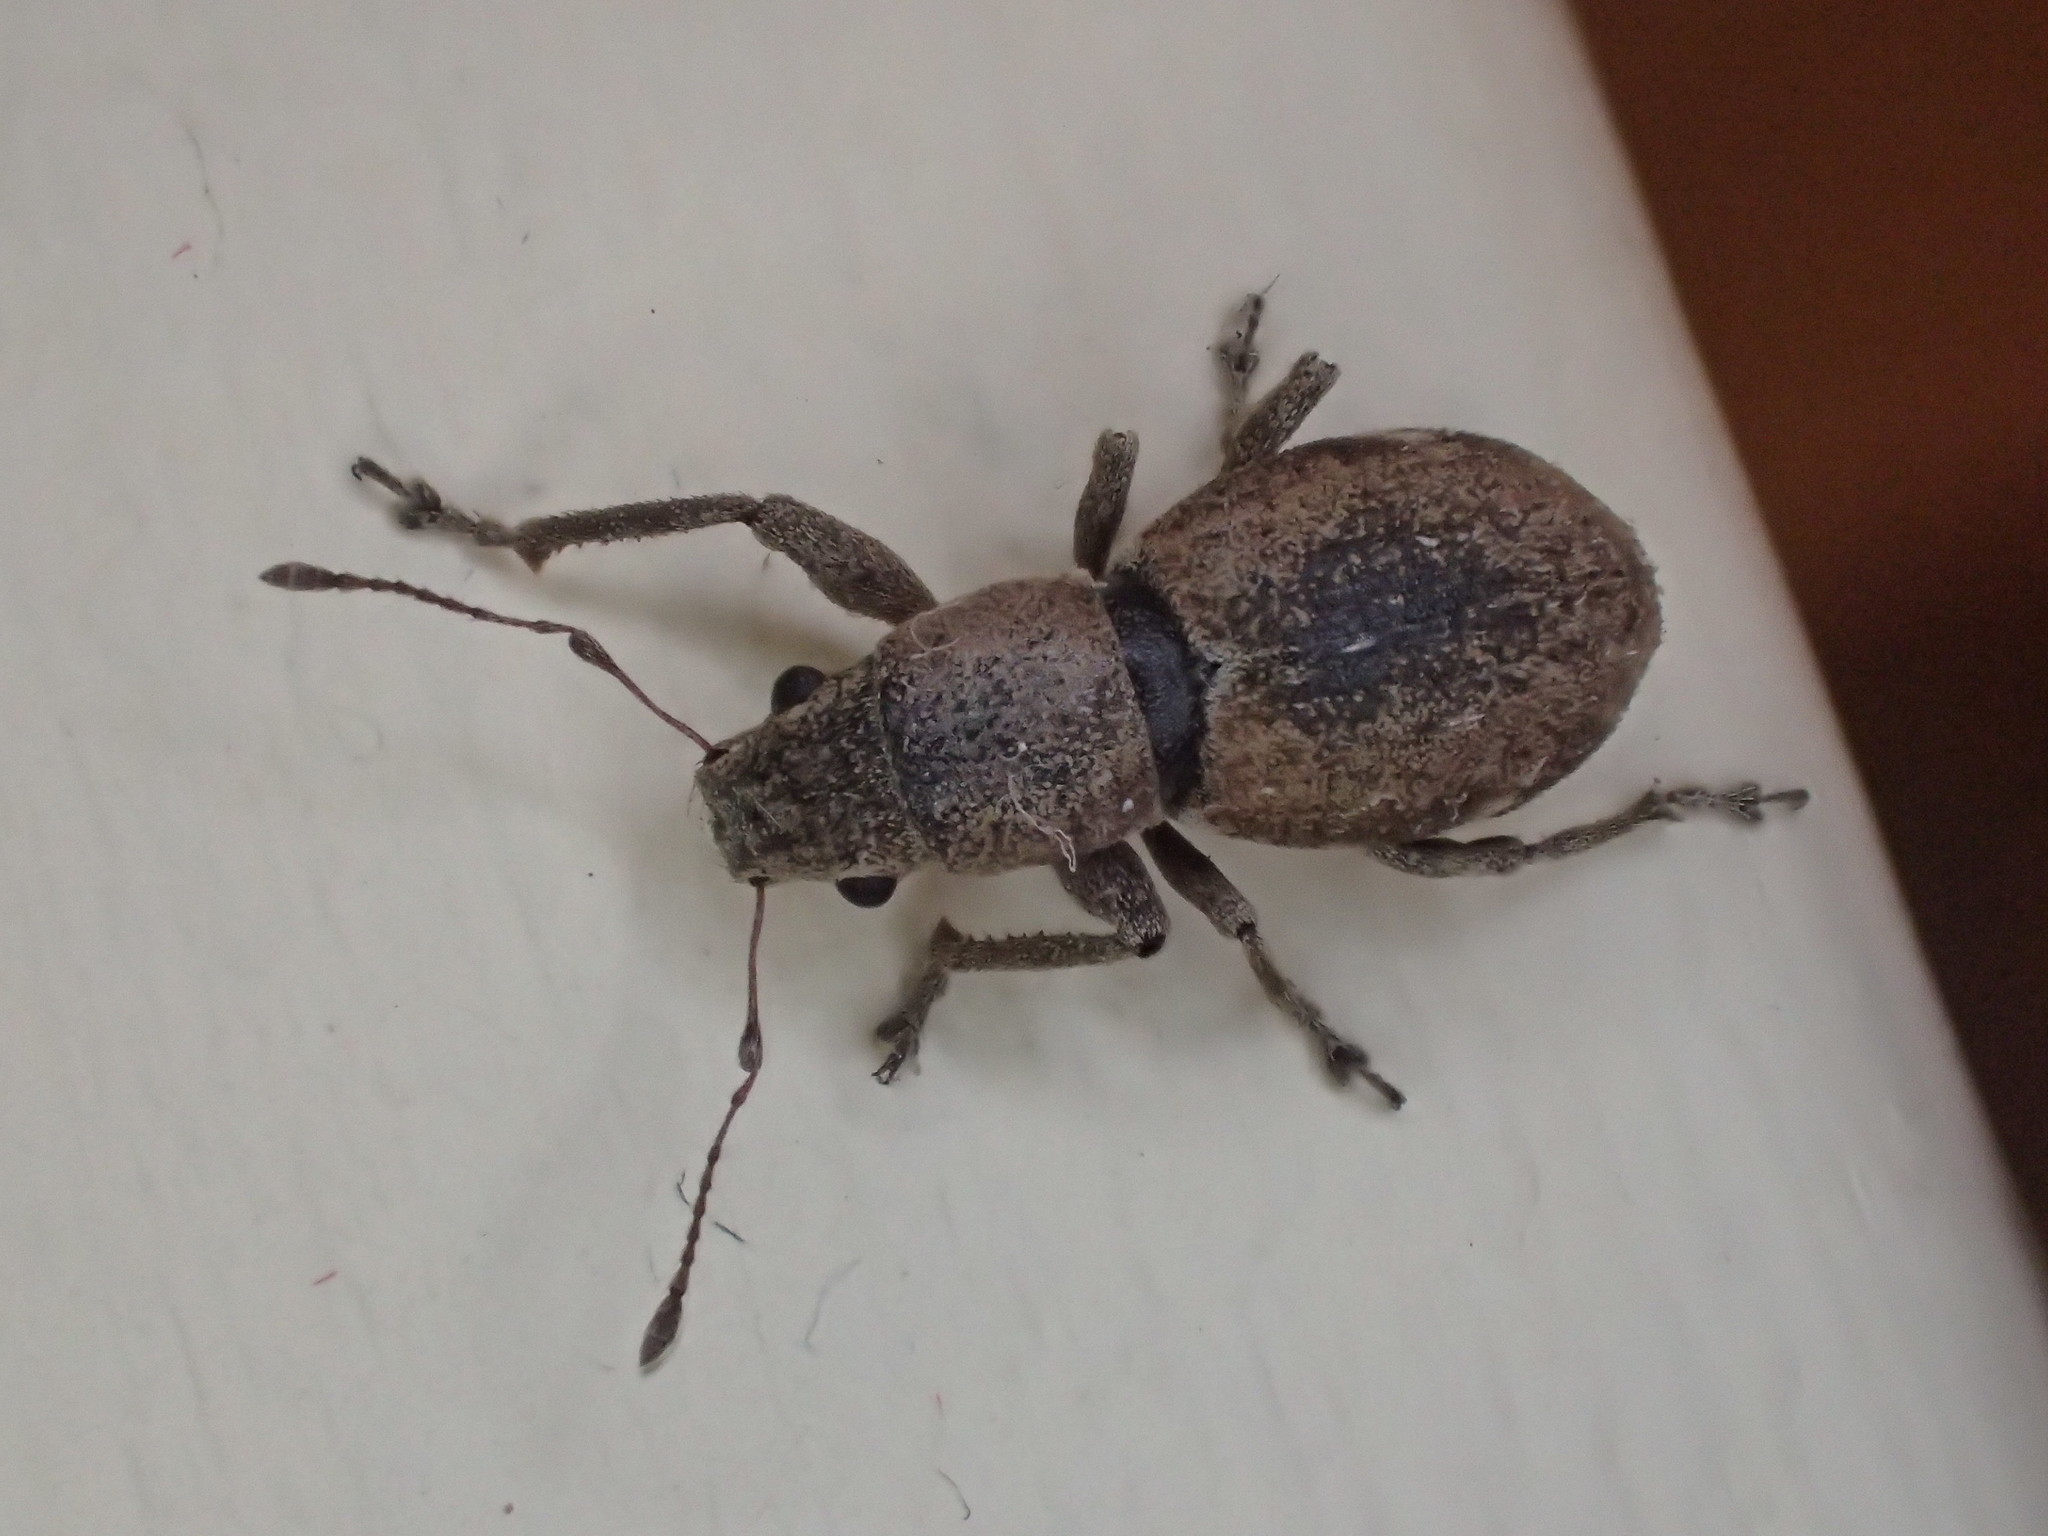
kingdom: Animalia
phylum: Arthropoda
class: Insecta
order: Coleoptera
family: Curculionidae
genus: Naupactus
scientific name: Naupactus cervinus
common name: Fuller rose beetle
